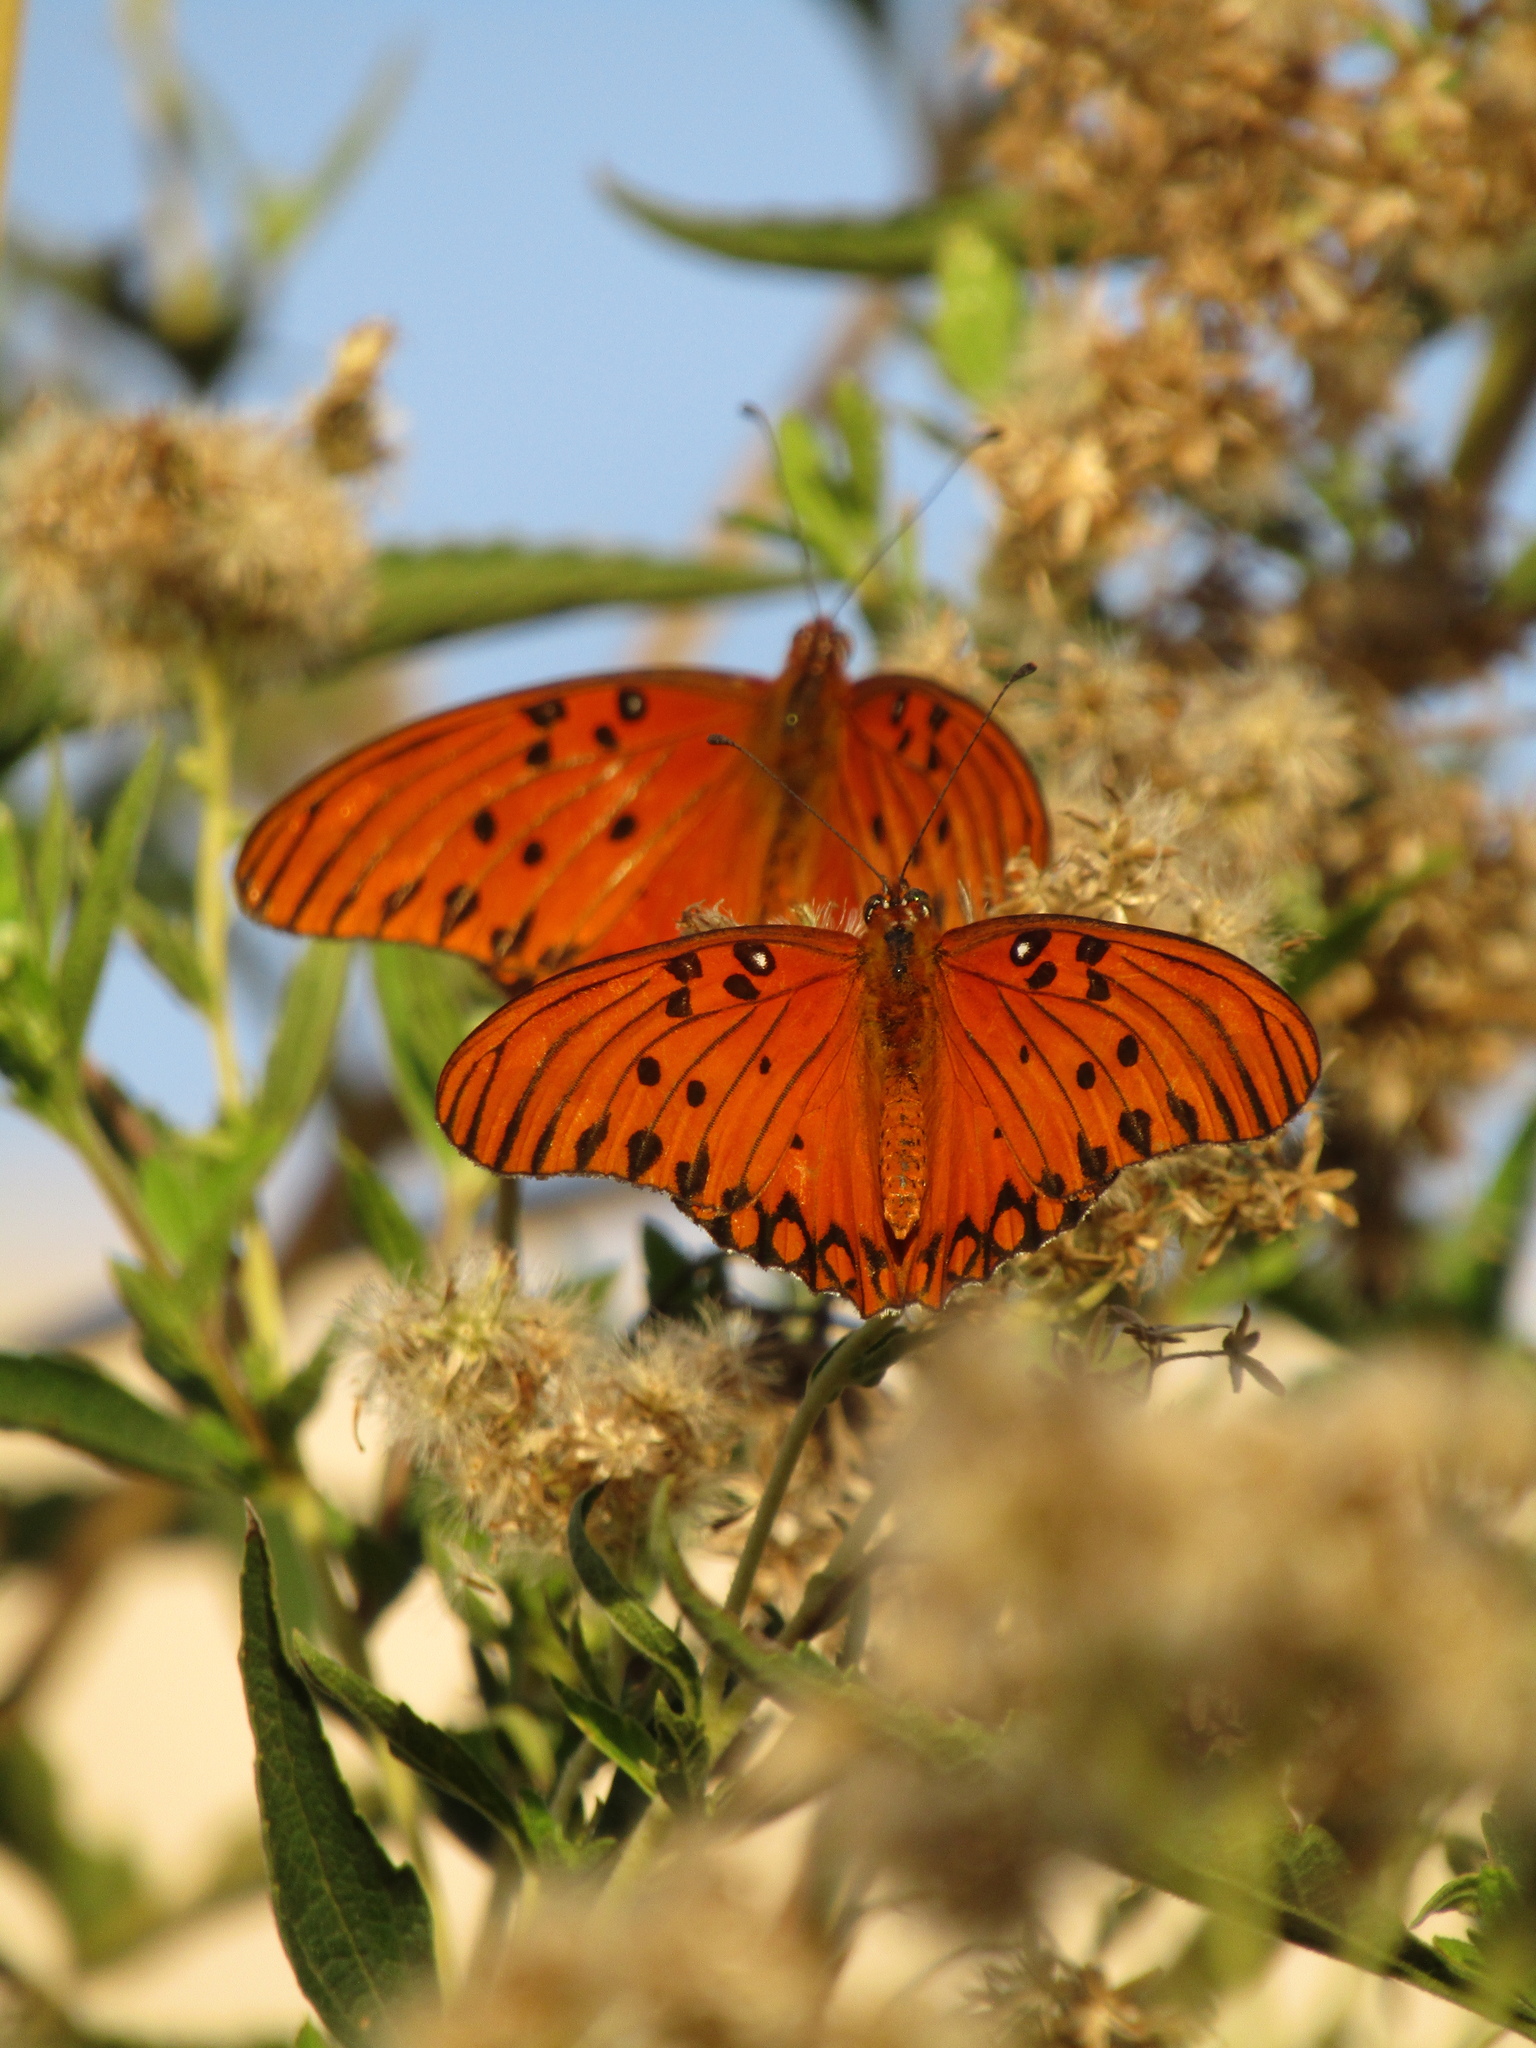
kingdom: Animalia
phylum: Arthropoda
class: Insecta
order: Lepidoptera
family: Nymphalidae
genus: Dione
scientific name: Dione vanillae
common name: Gulf fritillary
